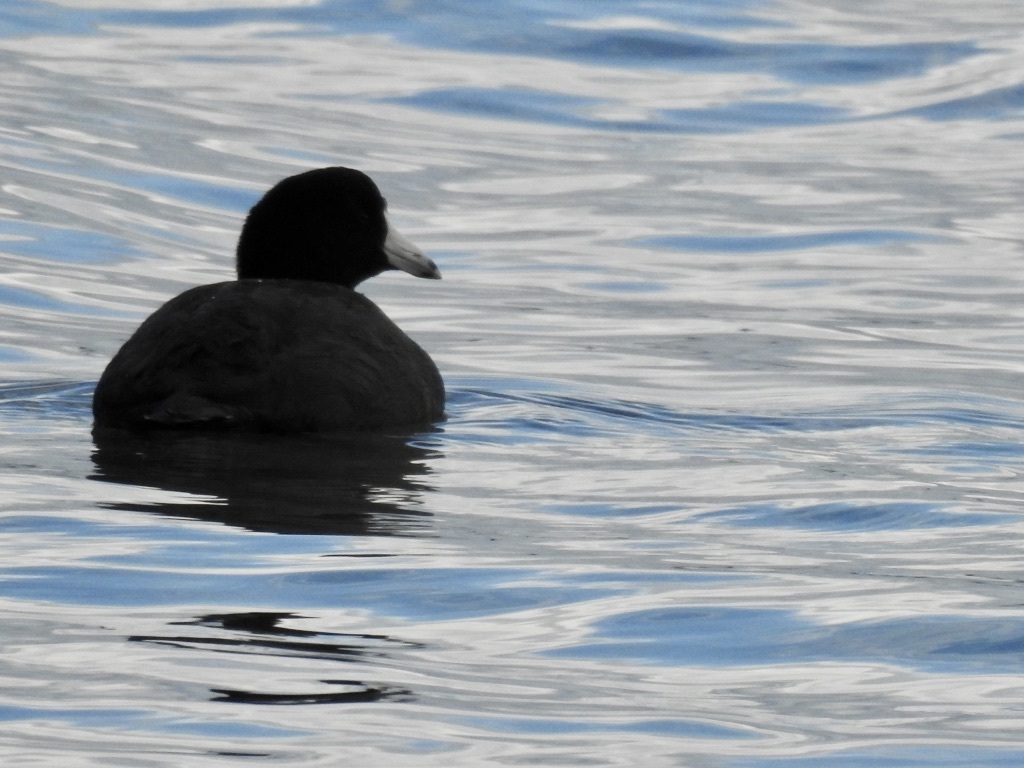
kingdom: Animalia
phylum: Chordata
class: Aves
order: Gruiformes
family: Rallidae
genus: Fulica
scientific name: Fulica americana
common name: American coot
